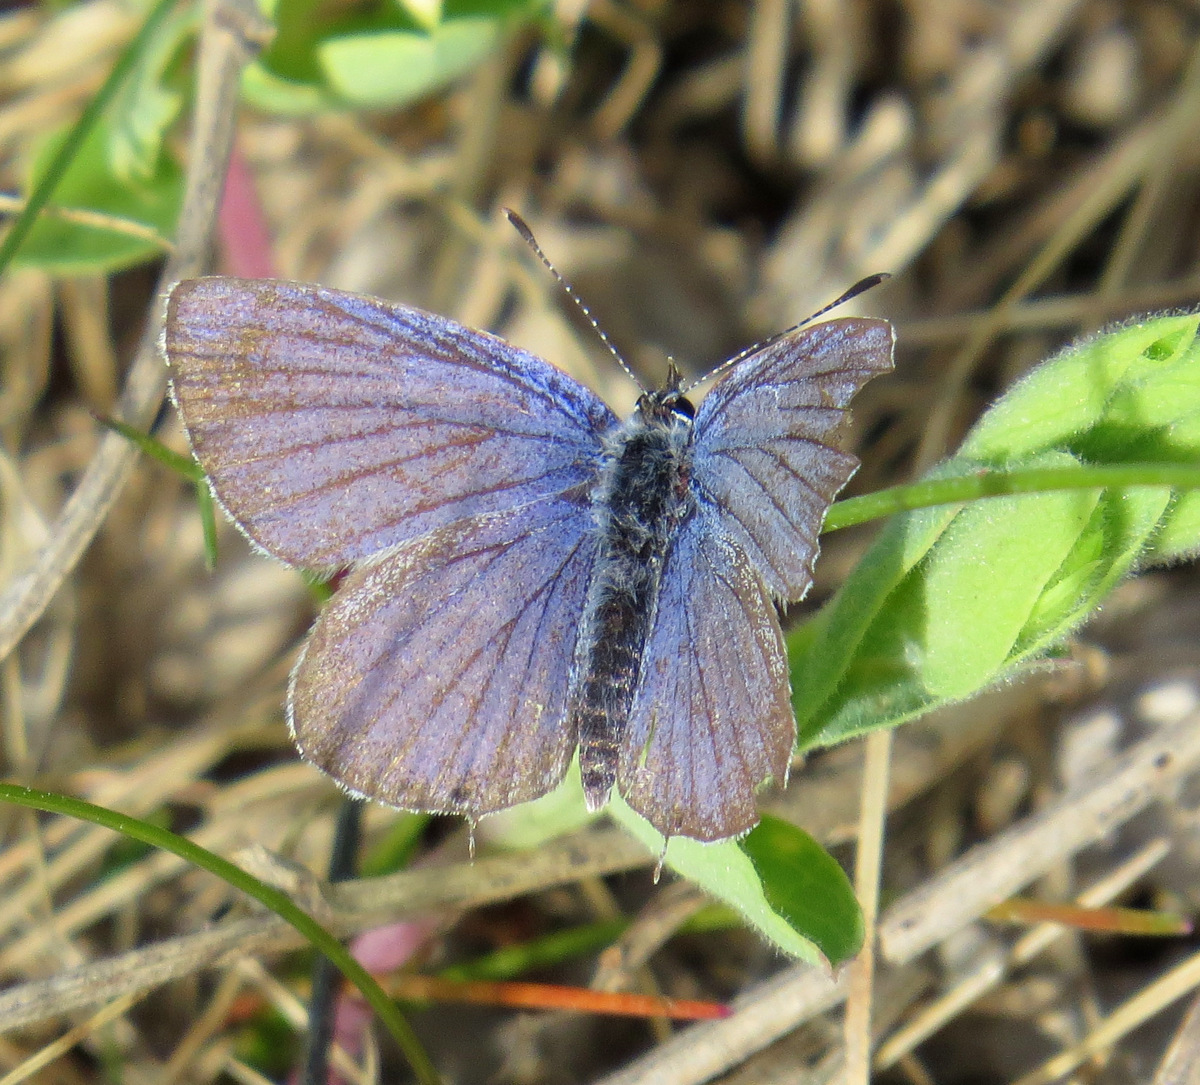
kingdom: Animalia
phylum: Arthropoda
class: Insecta
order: Lepidoptera
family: Lycaenidae
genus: Elkalyce
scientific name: Elkalyce amyntula
